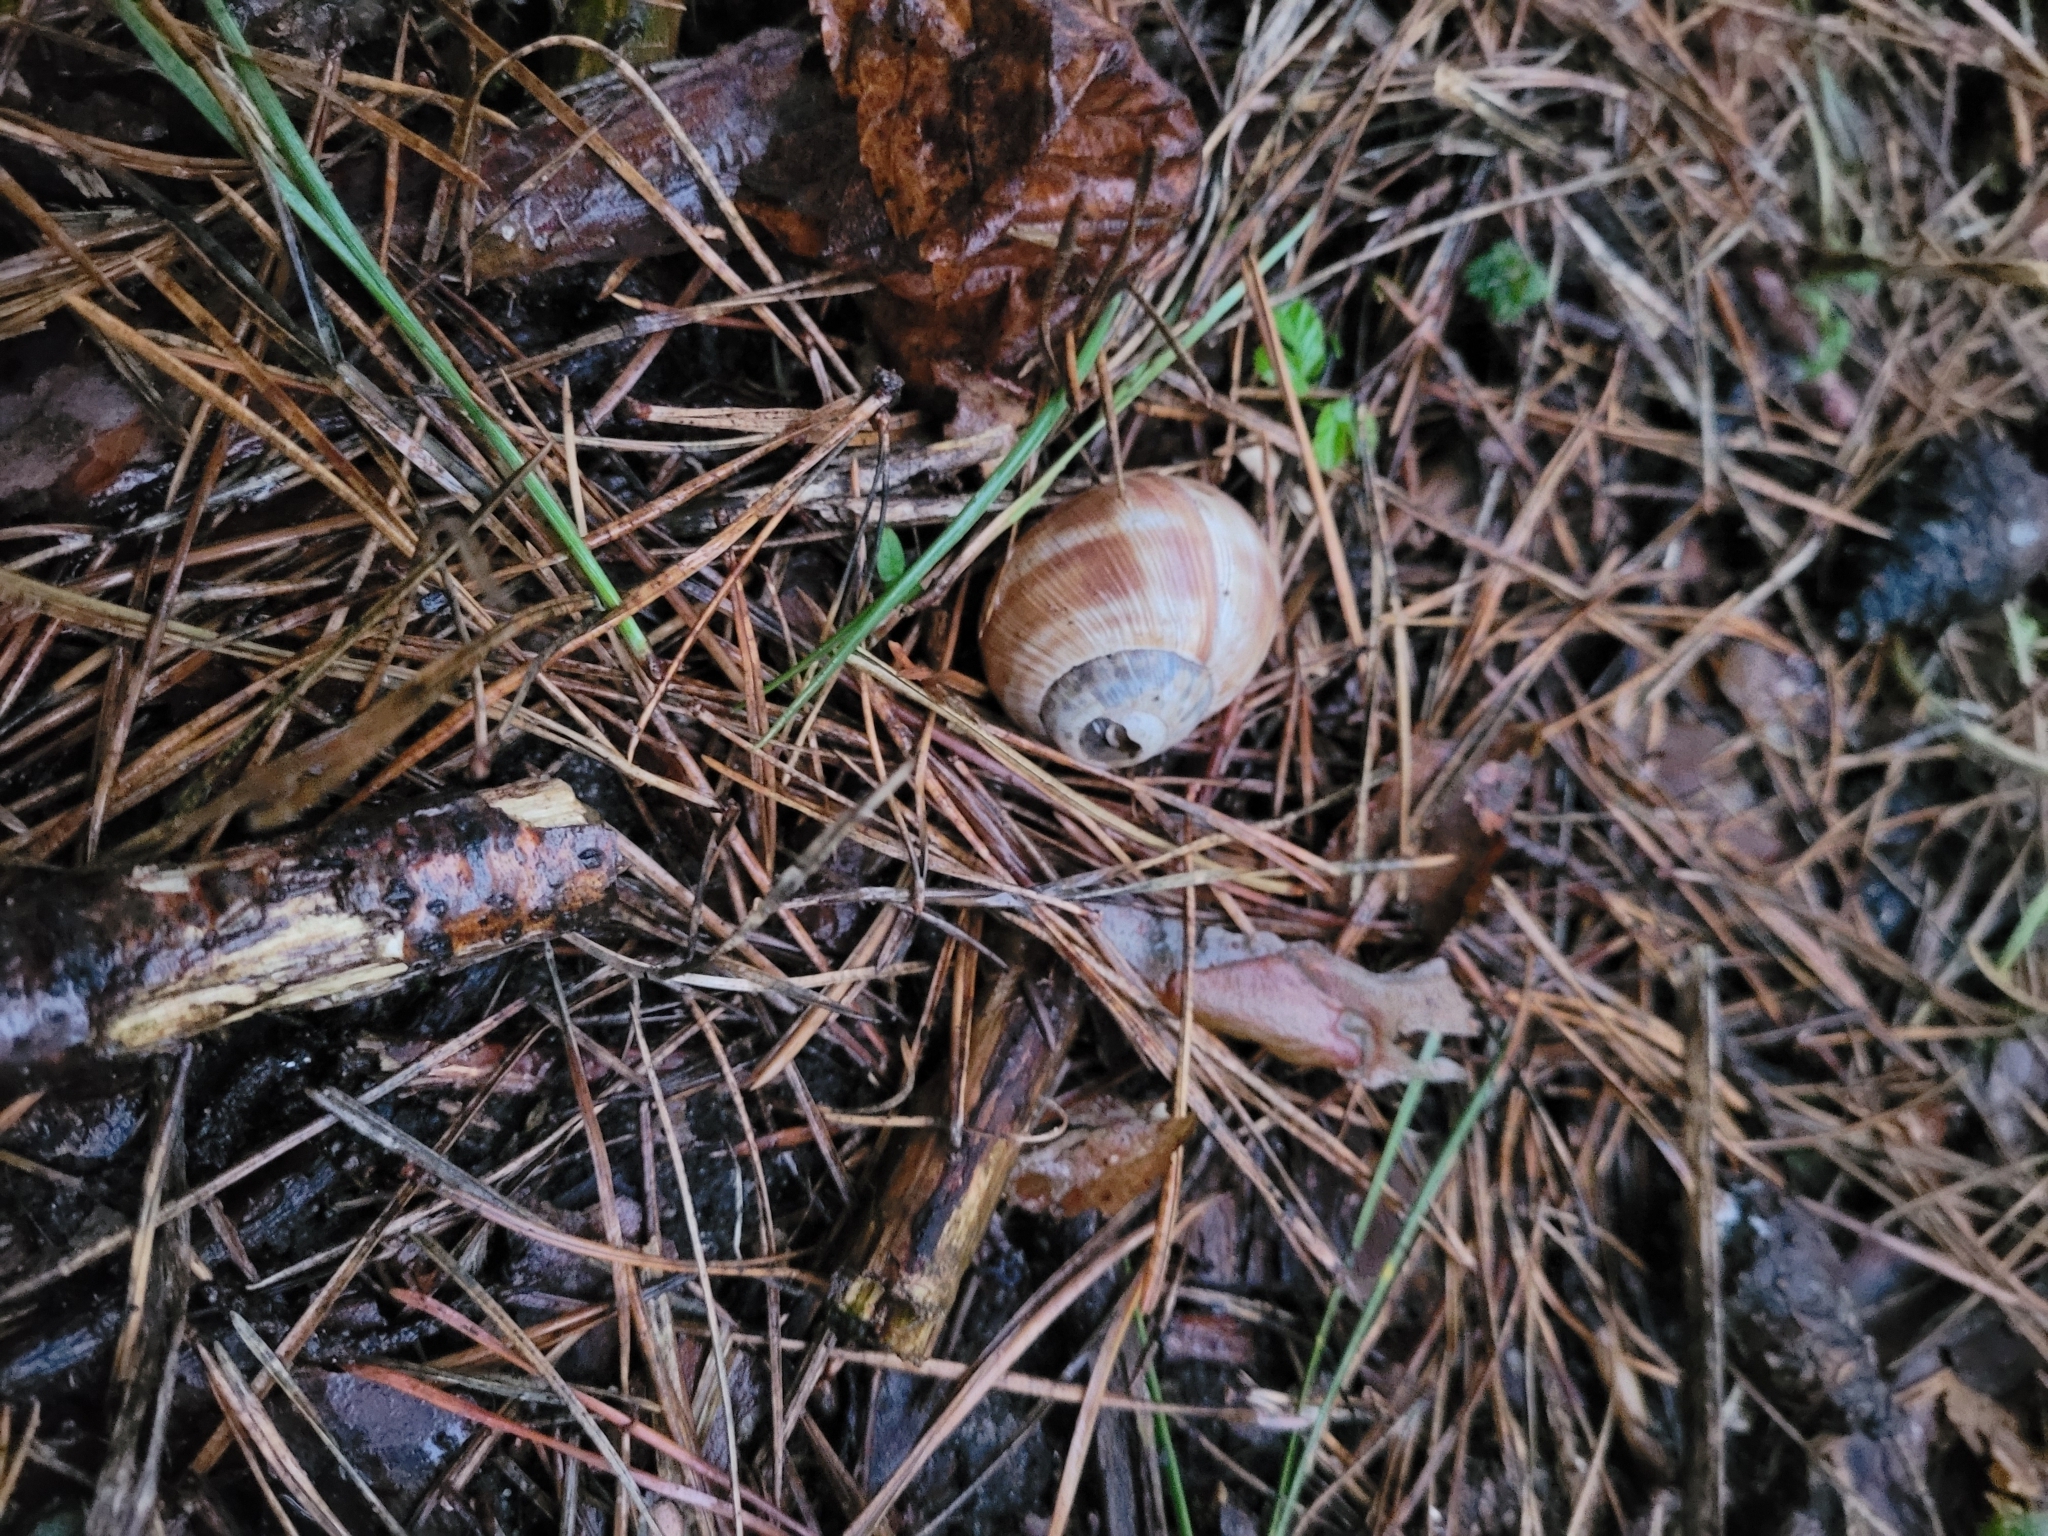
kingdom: Animalia
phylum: Mollusca
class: Gastropoda
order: Stylommatophora
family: Helicidae
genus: Helix
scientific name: Helix pomatia
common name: Roman snail
